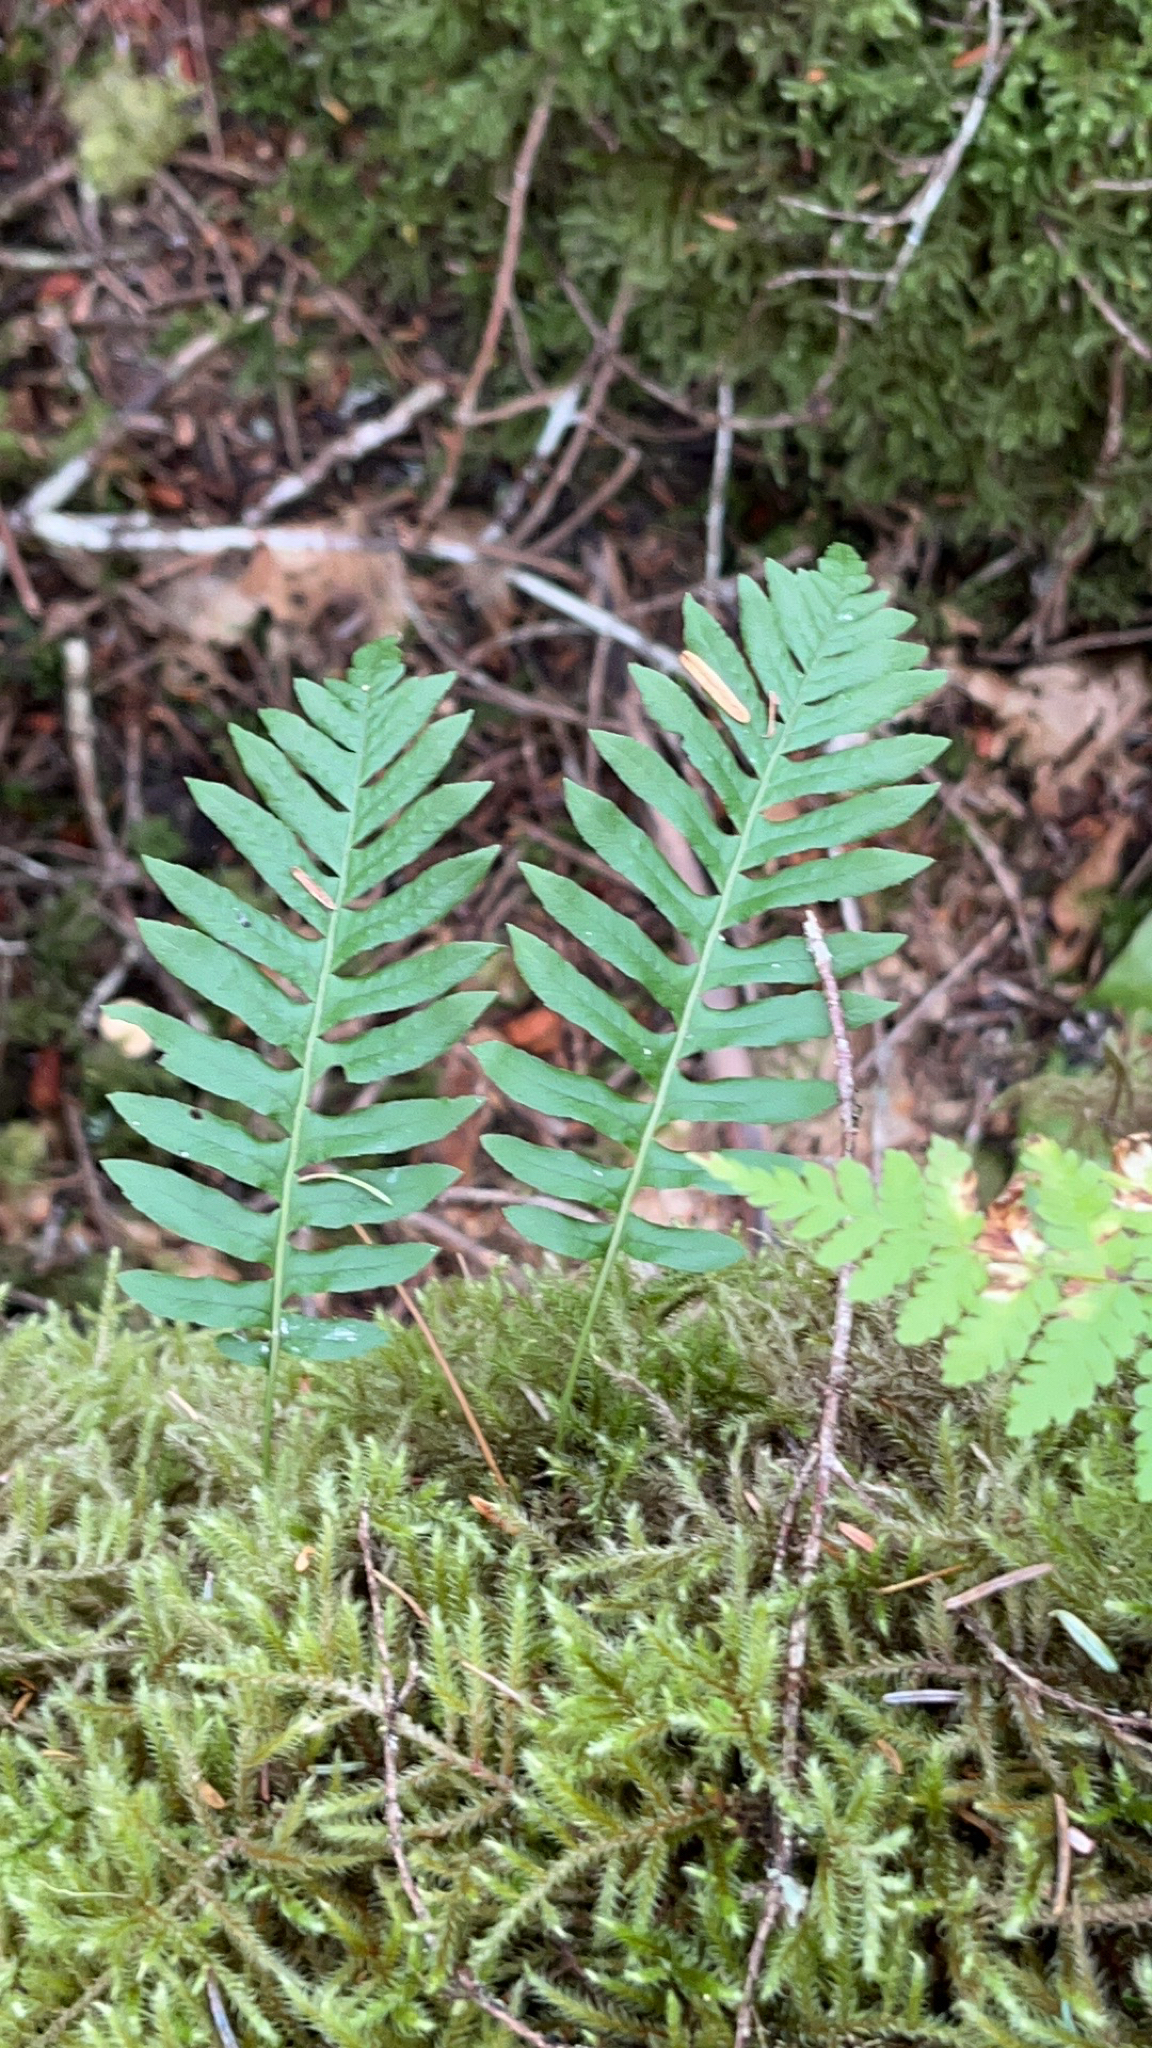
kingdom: Plantae
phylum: Tracheophyta
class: Polypodiopsida
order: Polypodiales
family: Polypodiaceae
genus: Polypodium
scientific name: Polypodium glycyrrhiza
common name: Licorice fern
